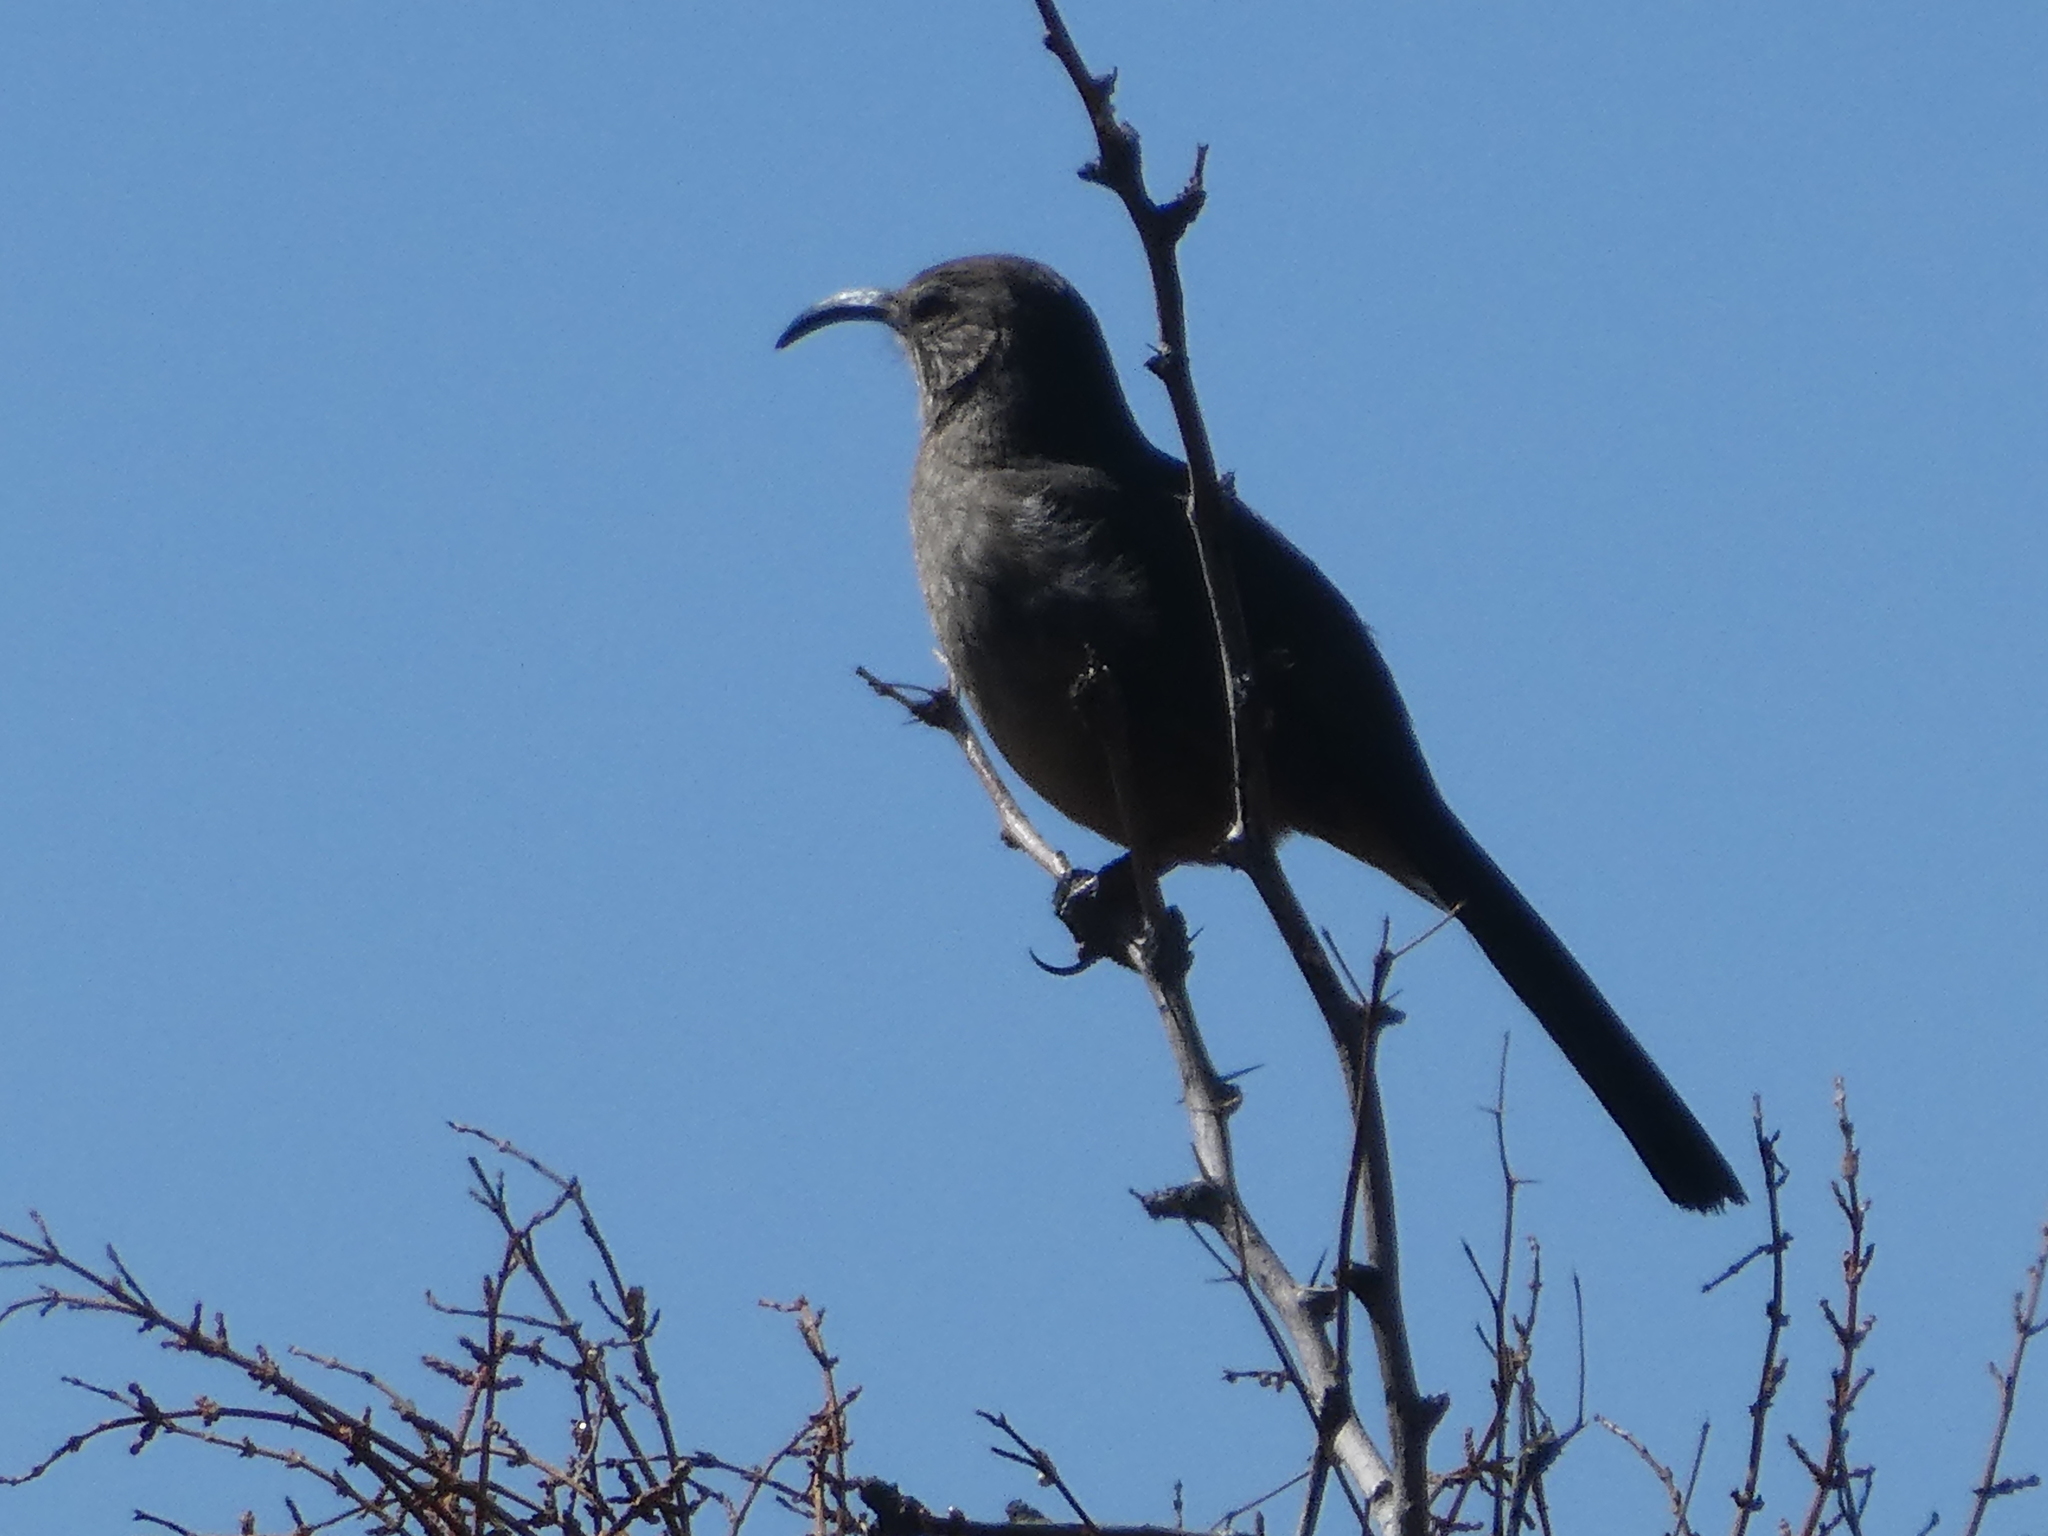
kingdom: Animalia
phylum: Chordata
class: Aves
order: Passeriformes
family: Mimidae
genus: Toxostoma
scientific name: Toxostoma redivivum
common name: California thrasher
